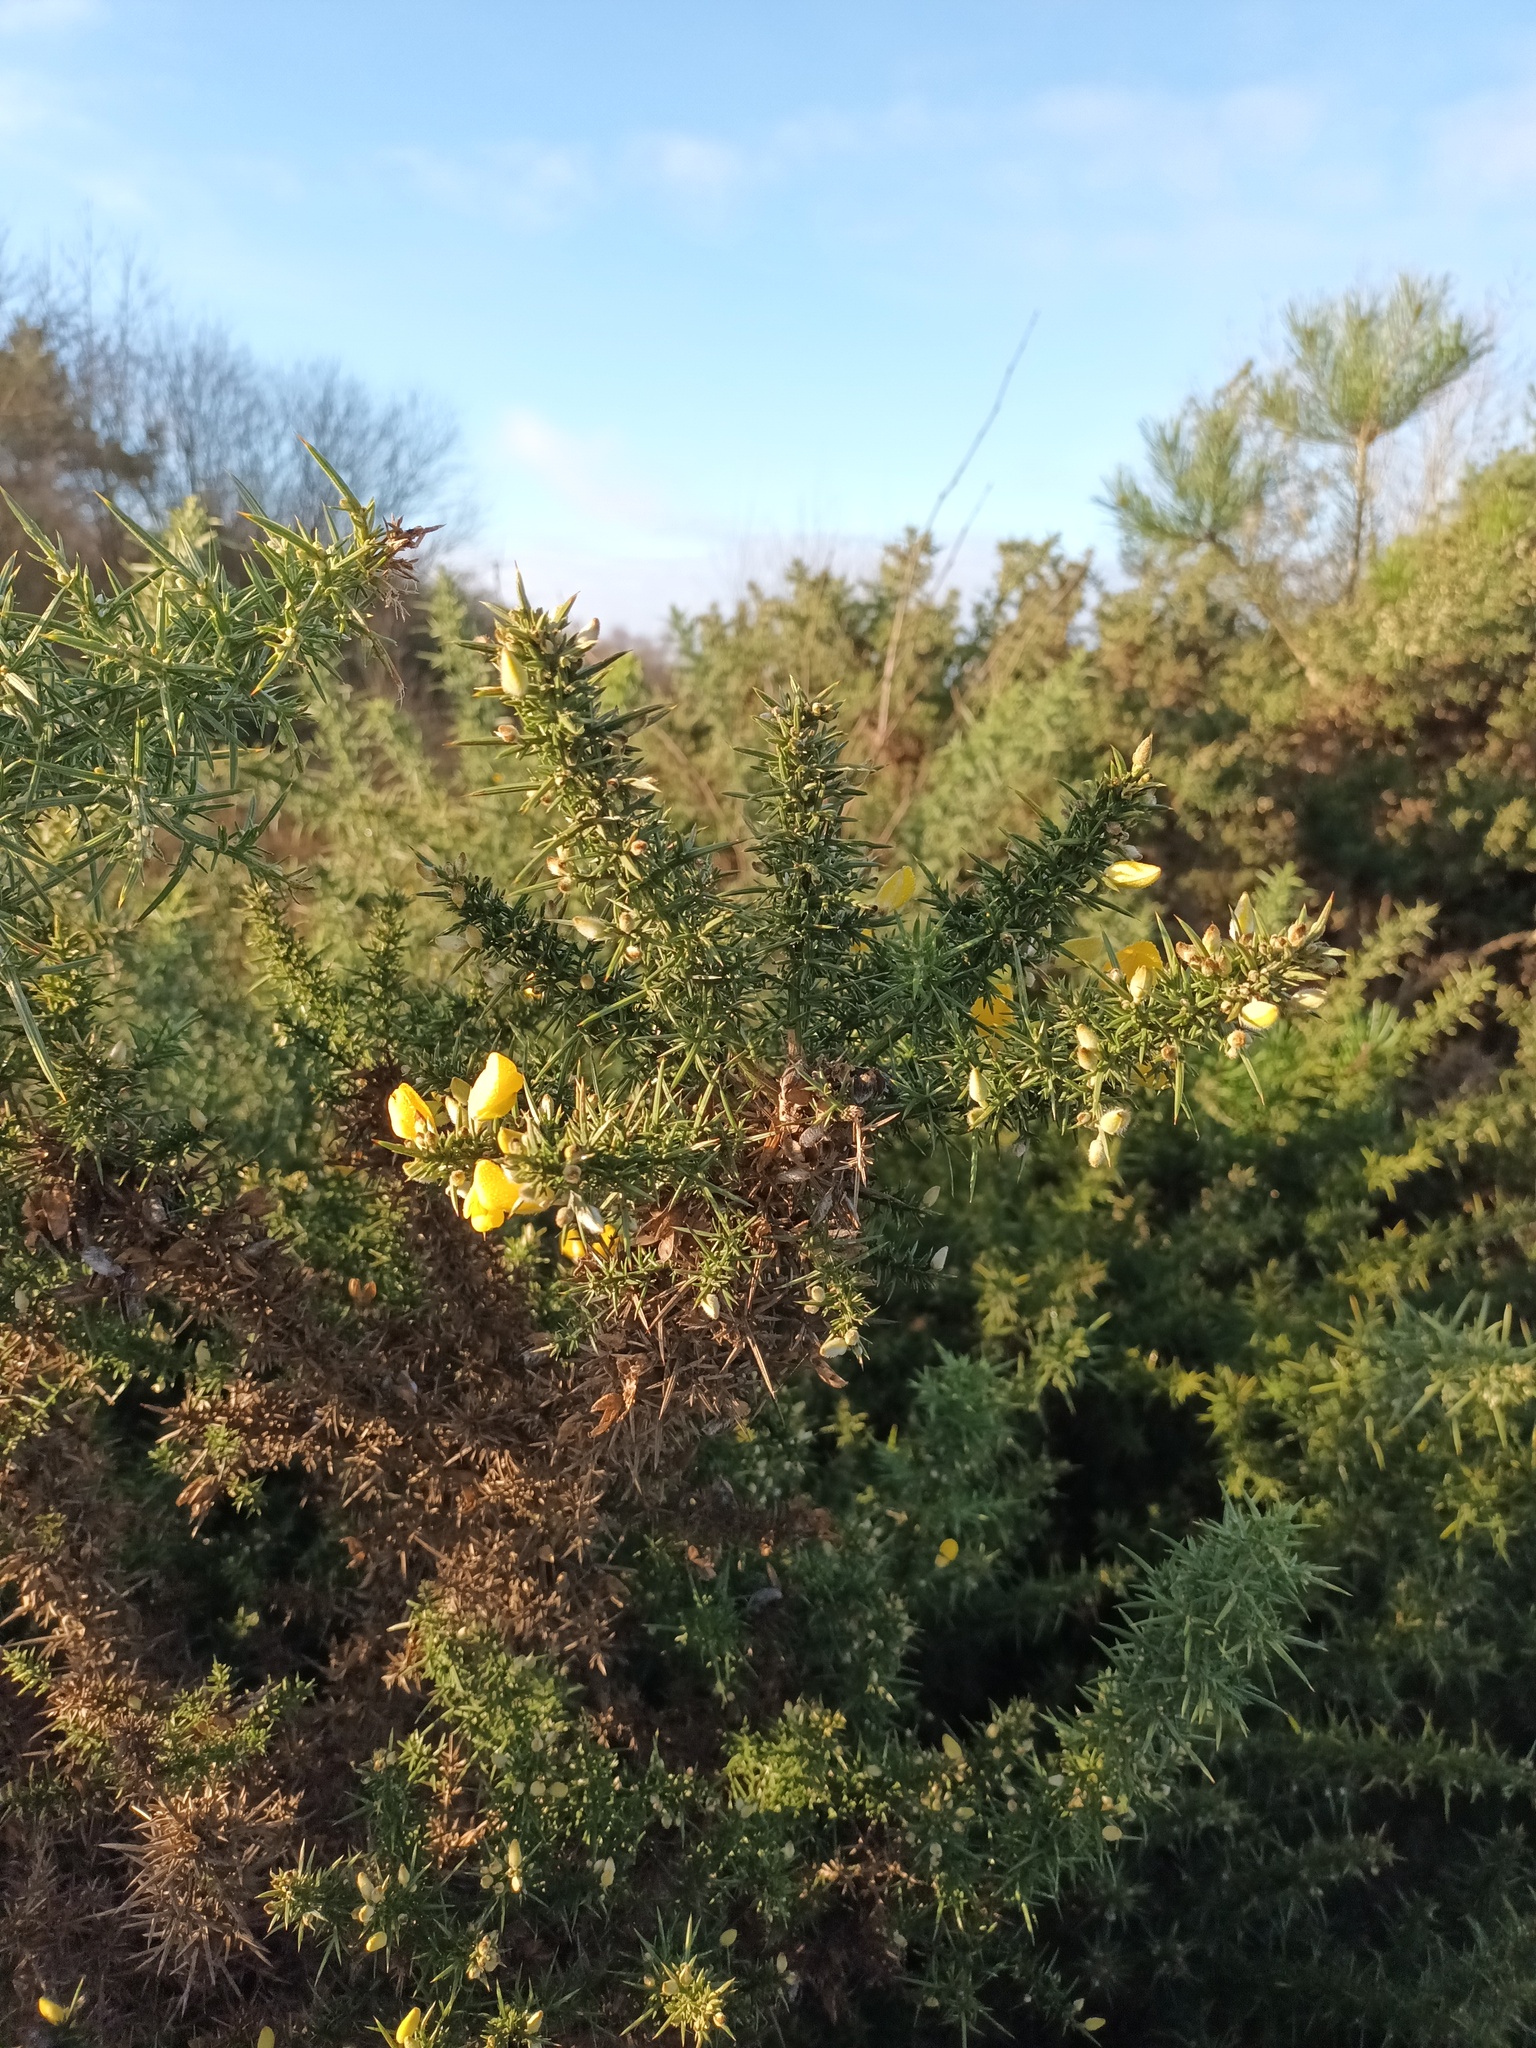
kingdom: Plantae
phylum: Tracheophyta
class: Magnoliopsida
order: Fabales
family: Fabaceae
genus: Ulex
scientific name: Ulex europaeus
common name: Common gorse
